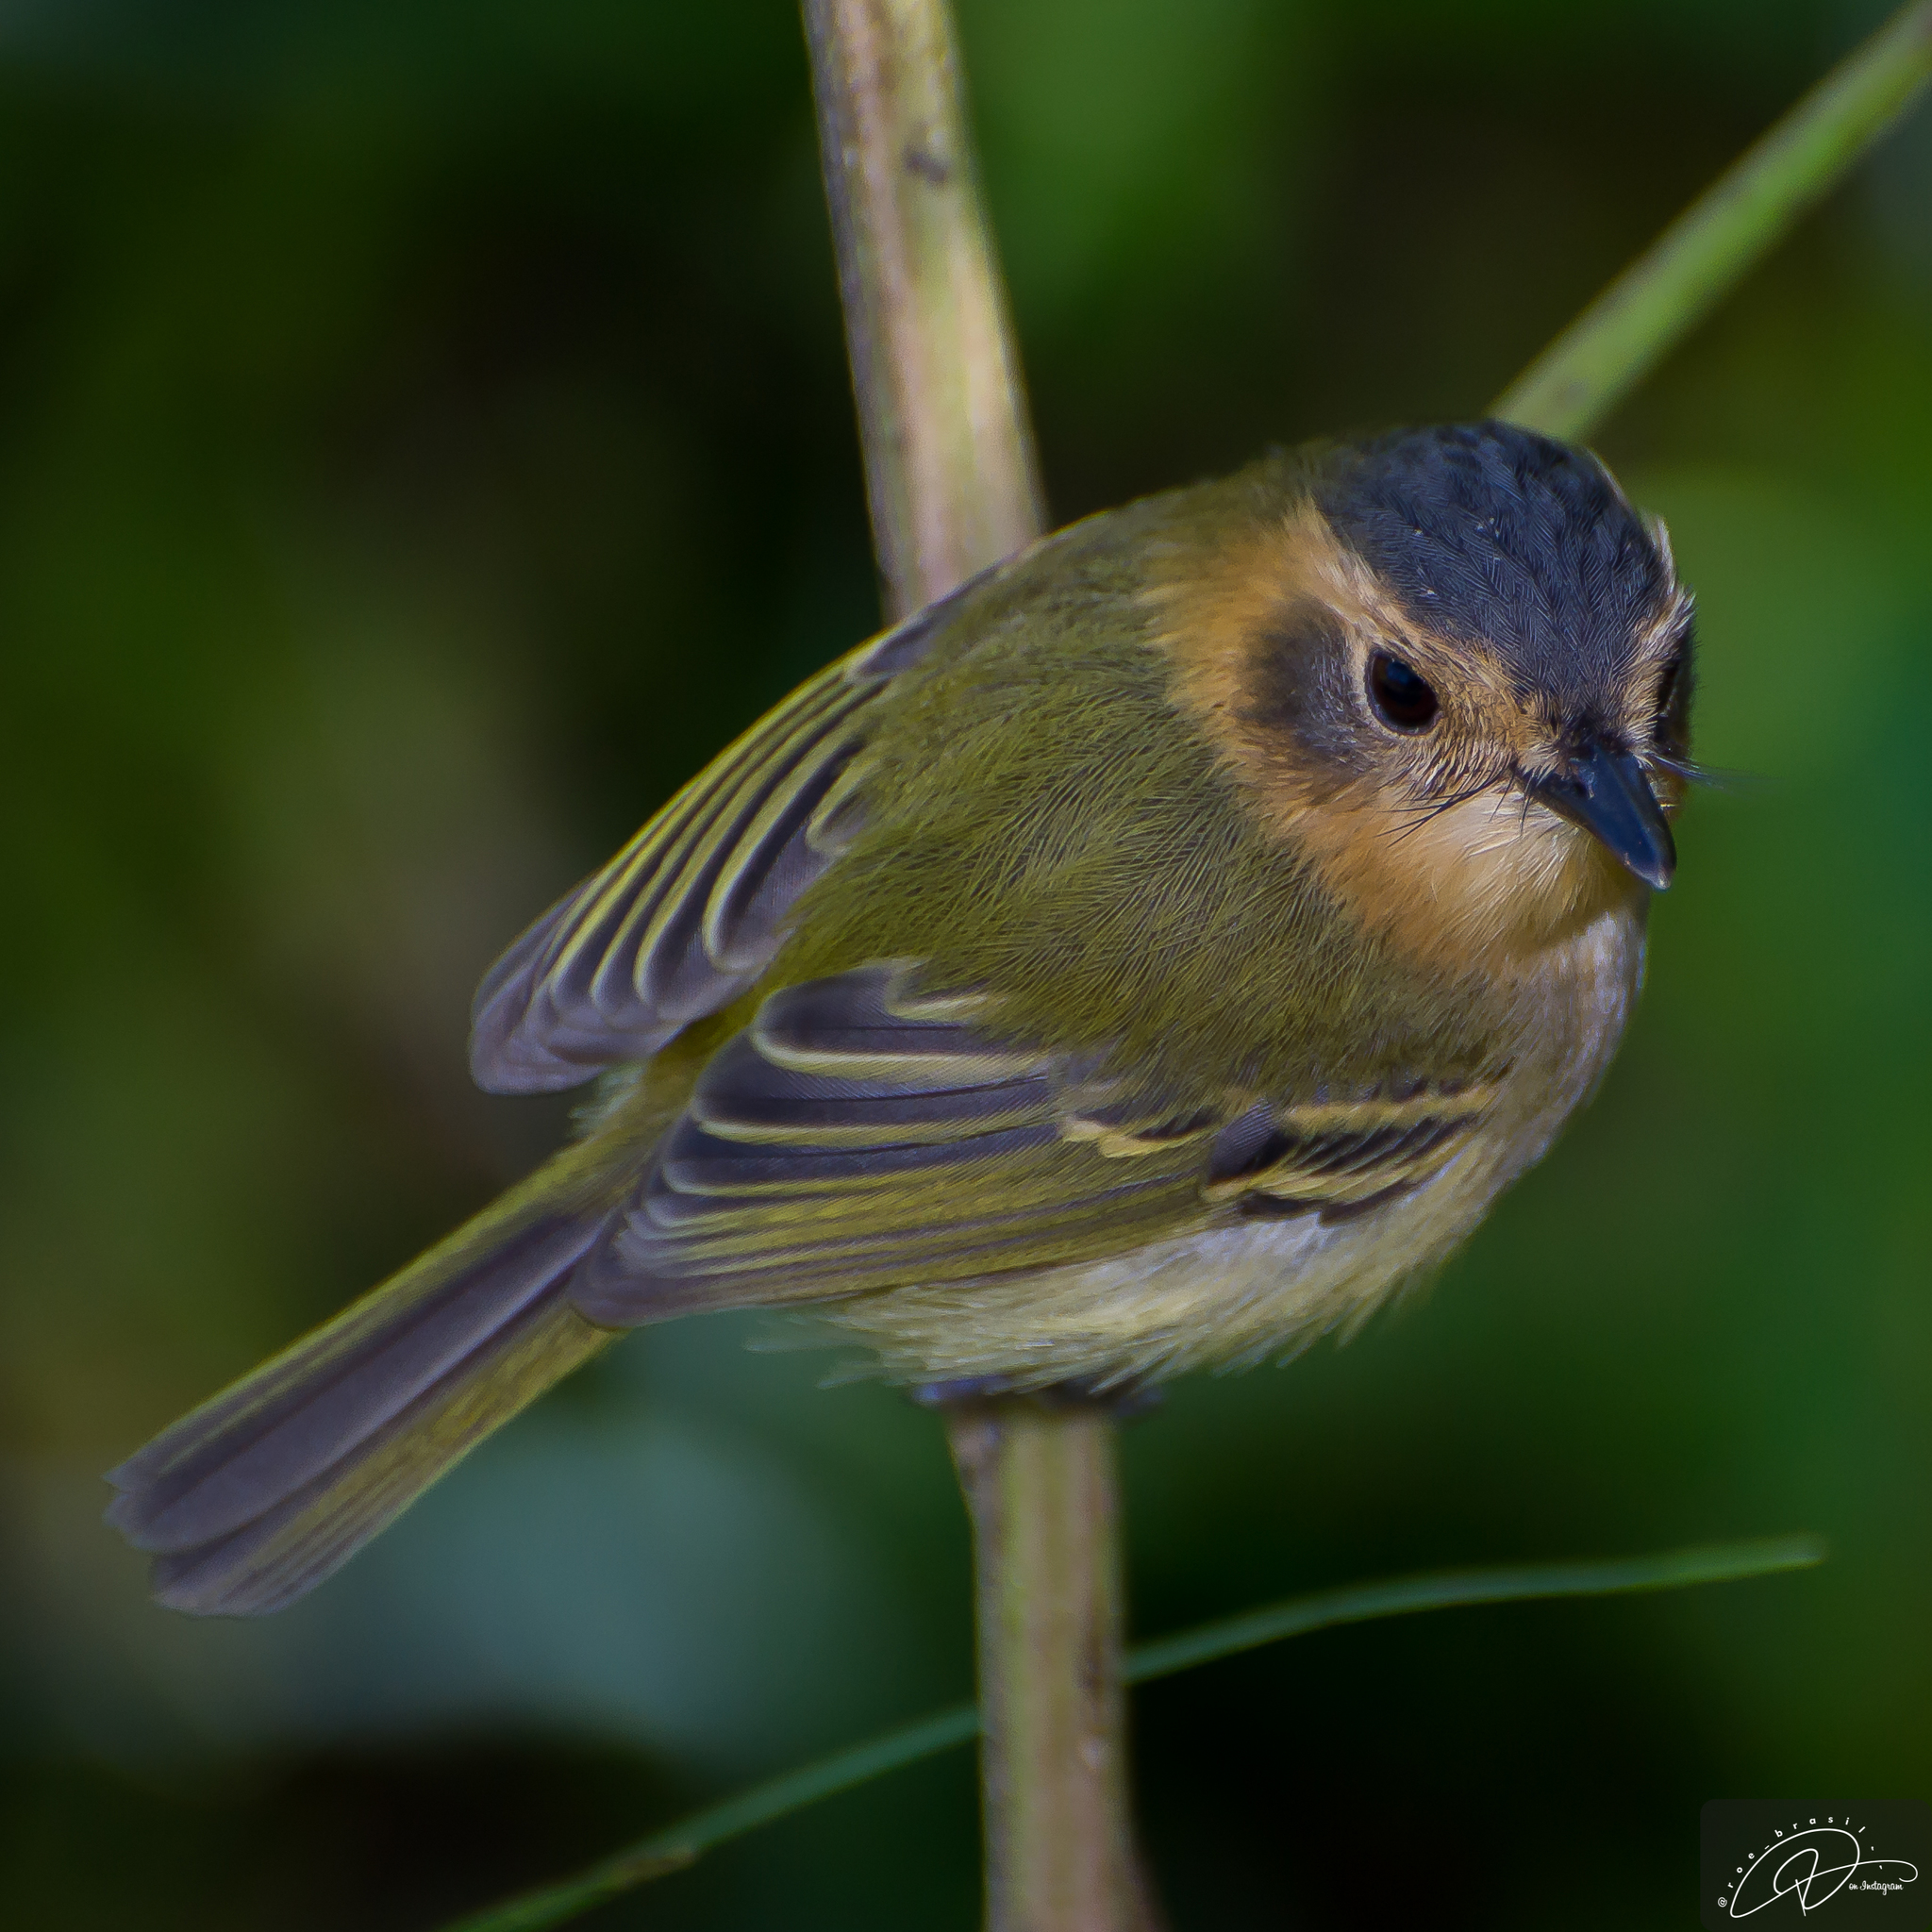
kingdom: Animalia
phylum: Chordata
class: Aves
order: Passeriformes
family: Tyrannidae
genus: Poecilotriccus
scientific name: Poecilotriccus plumbeiceps
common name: Ochre-faced tody-flycatcher
